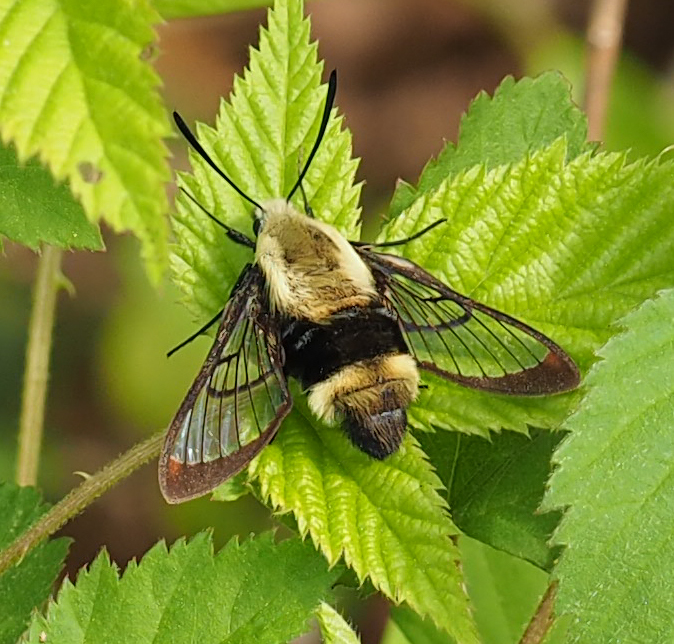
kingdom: Animalia
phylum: Arthropoda
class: Insecta
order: Lepidoptera
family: Sphingidae
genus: Hemaris
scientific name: Hemaris diffinis
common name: Bumblebee moth
